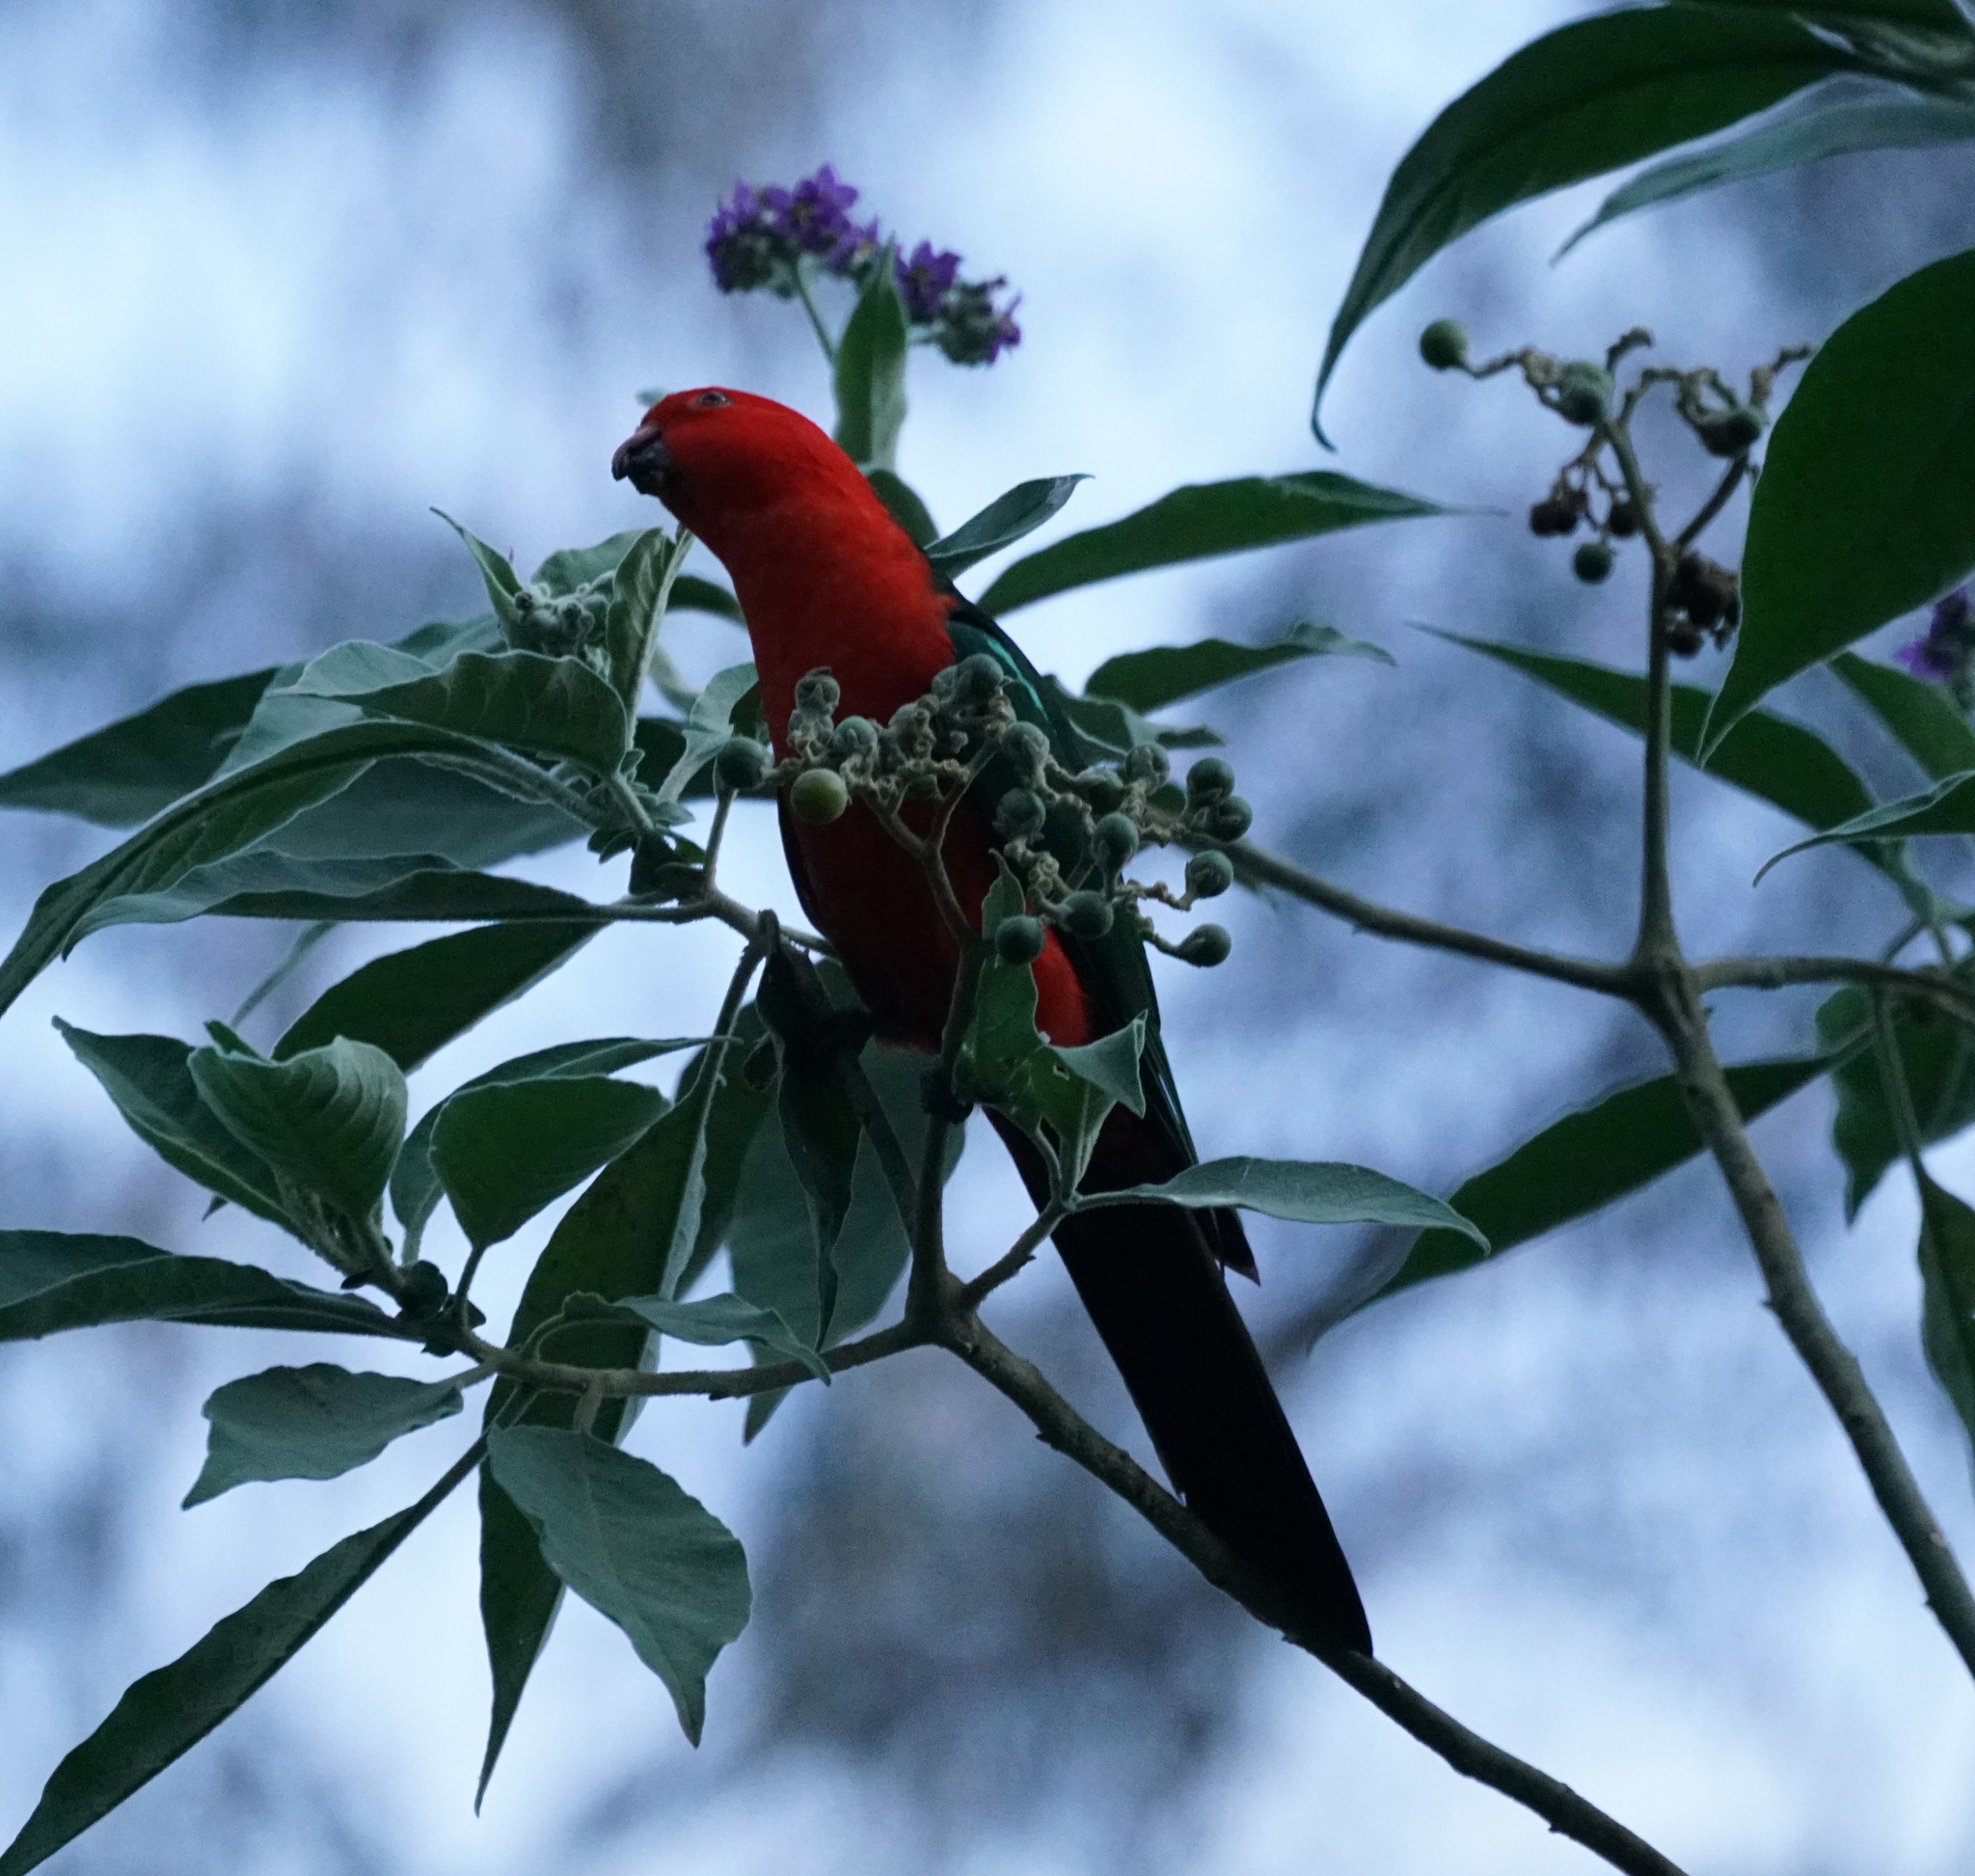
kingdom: Animalia
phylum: Chordata
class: Aves
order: Psittaciformes
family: Psittacidae
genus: Alisterus
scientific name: Alisterus scapularis
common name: Australian king parrot
